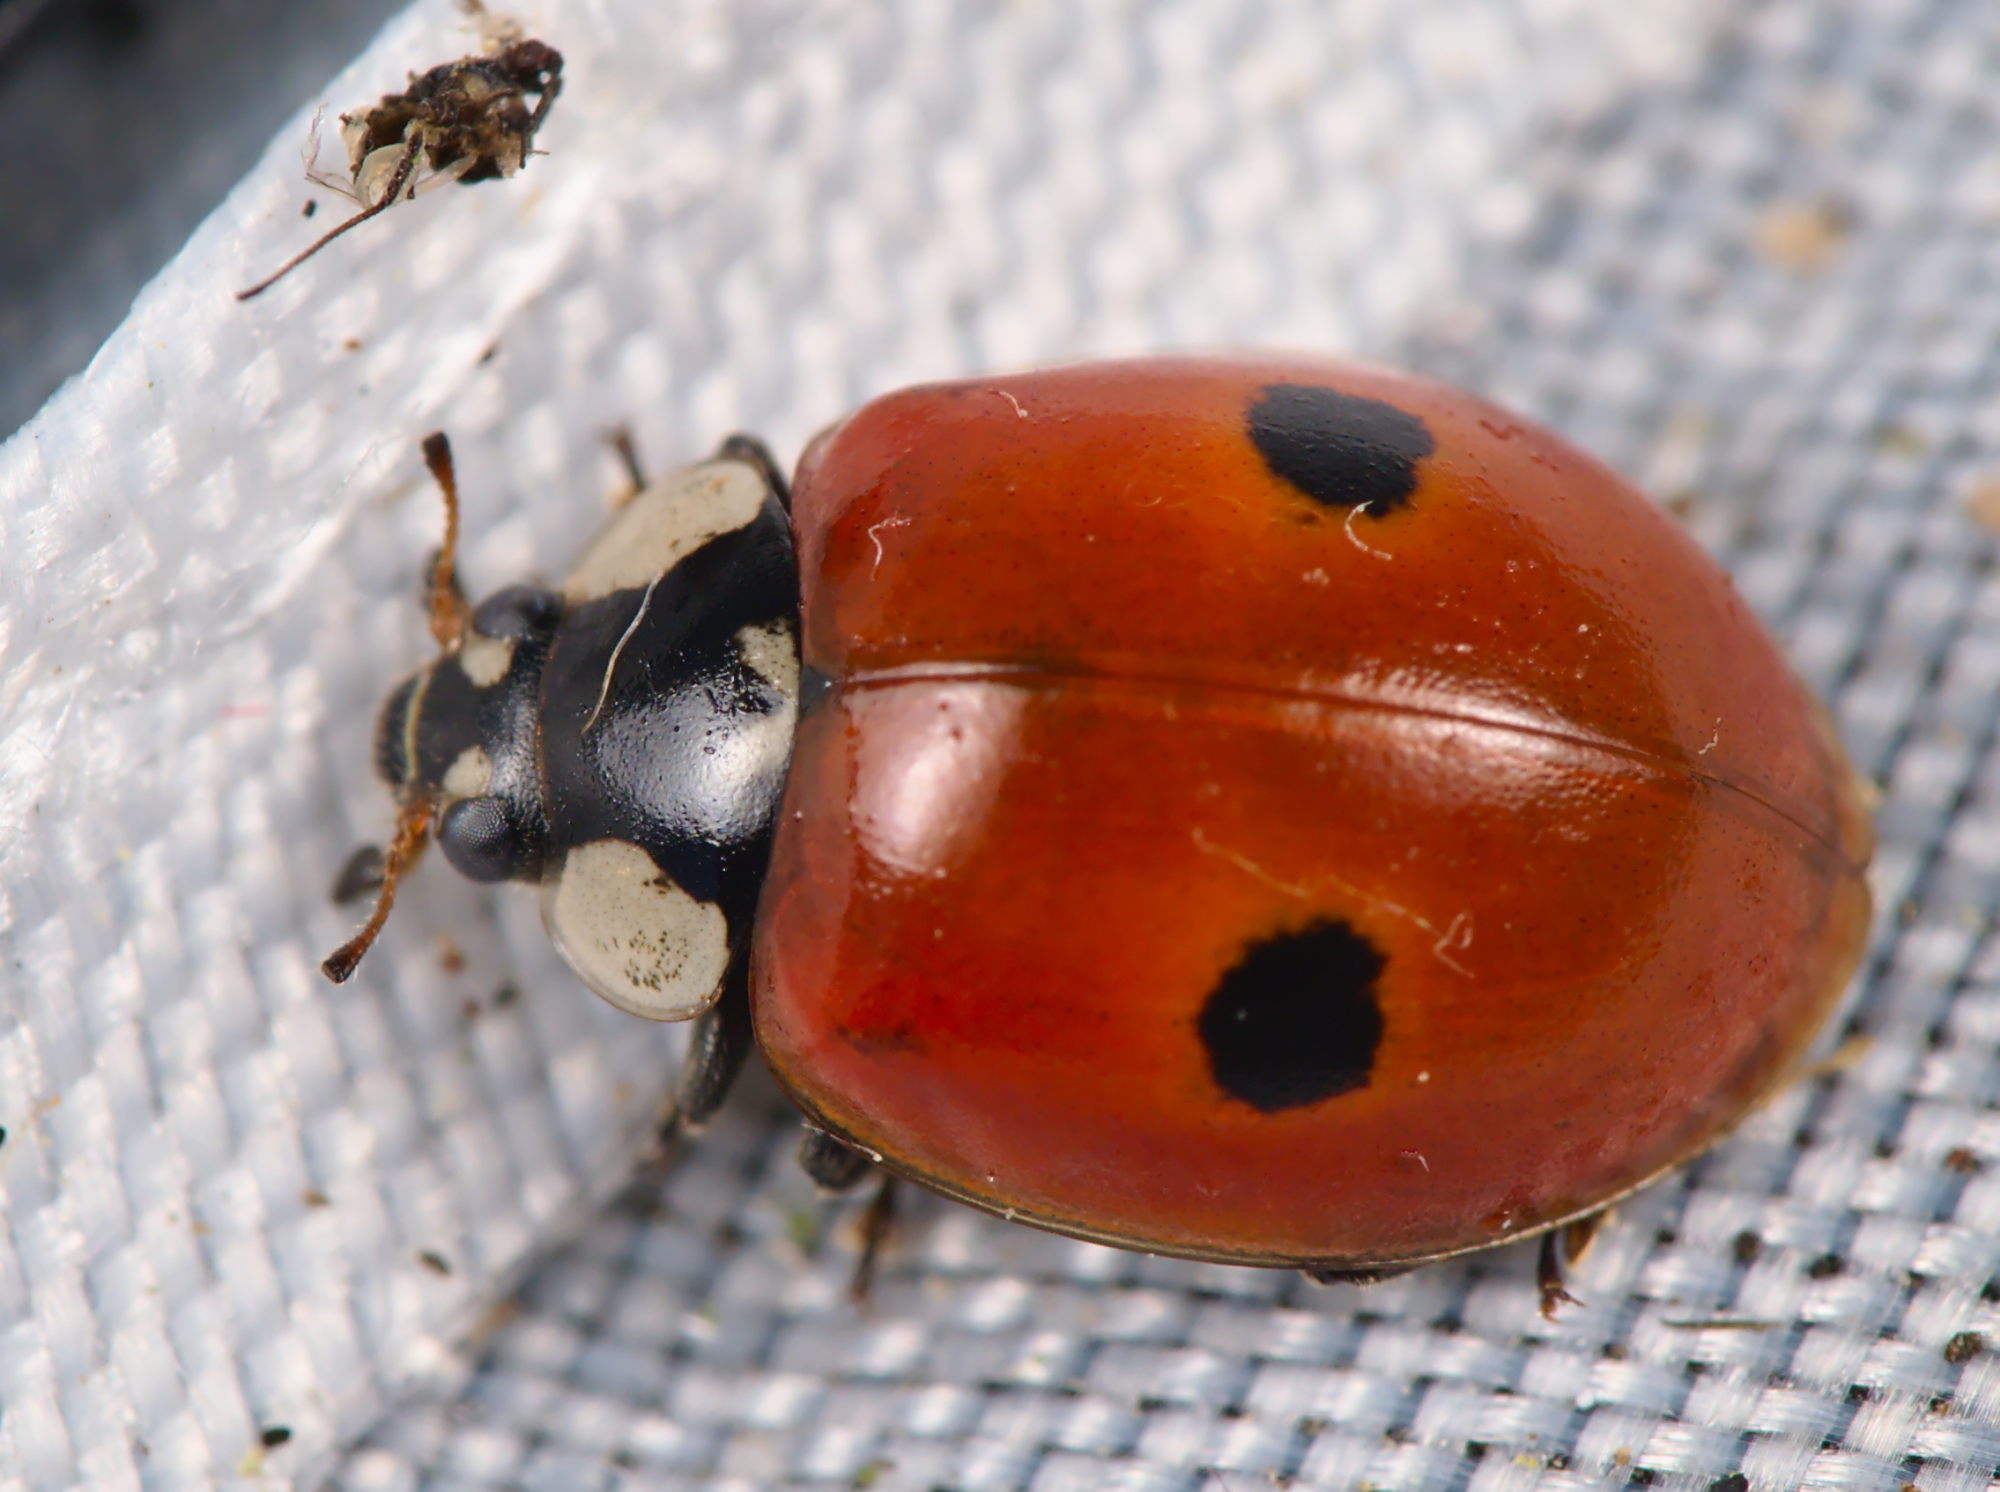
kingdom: Animalia
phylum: Arthropoda
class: Insecta
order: Coleoptera
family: Coccinellidae
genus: Adalia
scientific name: Adalia bipunctata
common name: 2-spot ladybird
